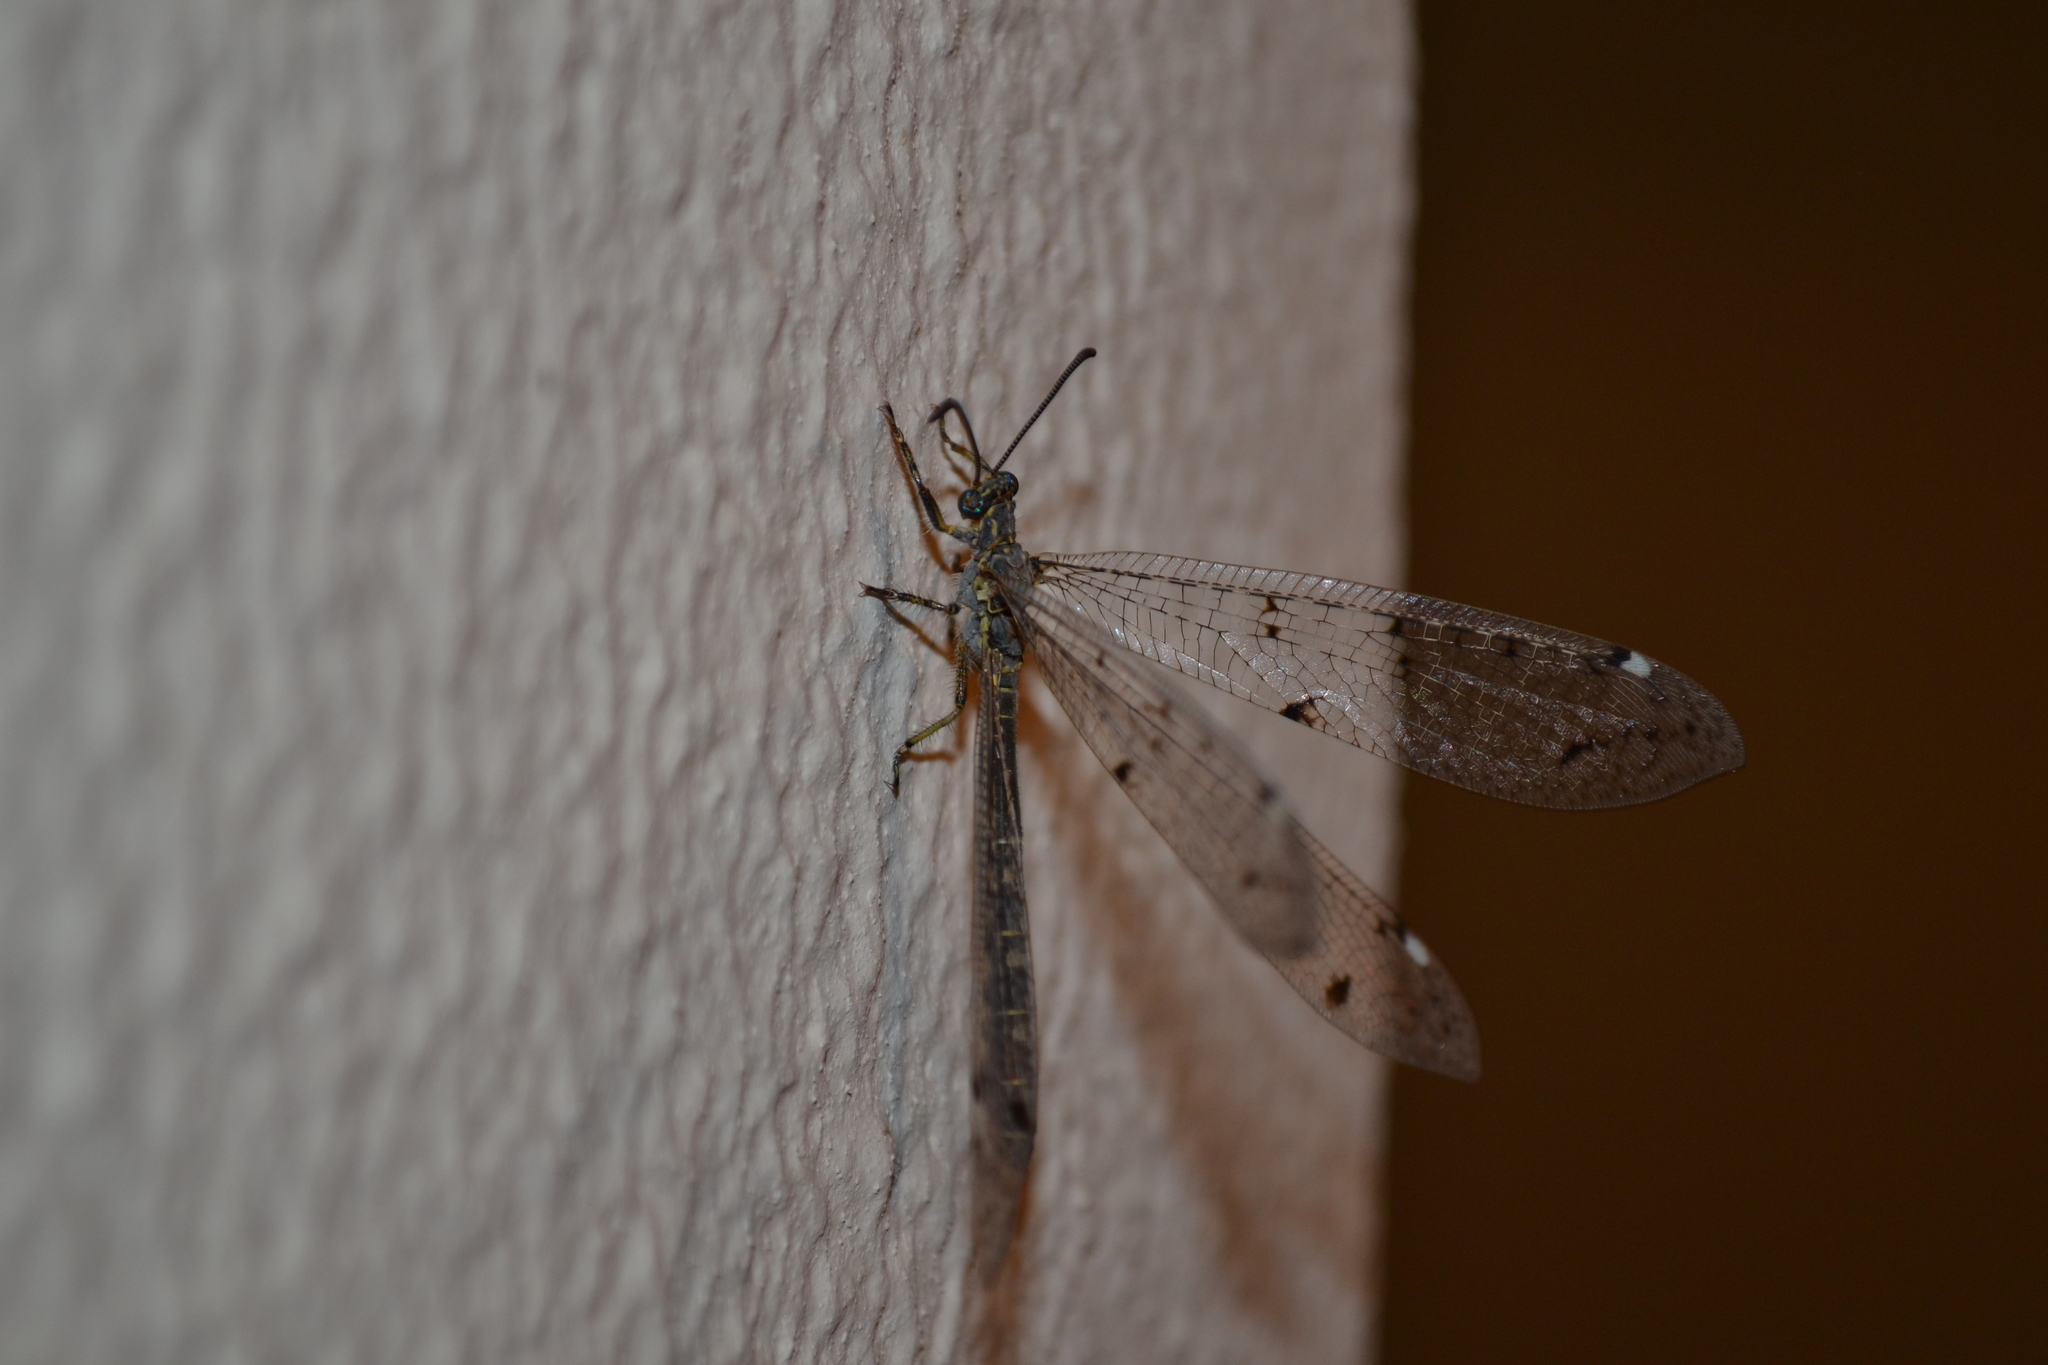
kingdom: Animalia
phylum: Arthropoda
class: Insecta
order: Neuroptera
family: Myrmeleontidae
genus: Distoleon
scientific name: Distoleon tetragrammicus
